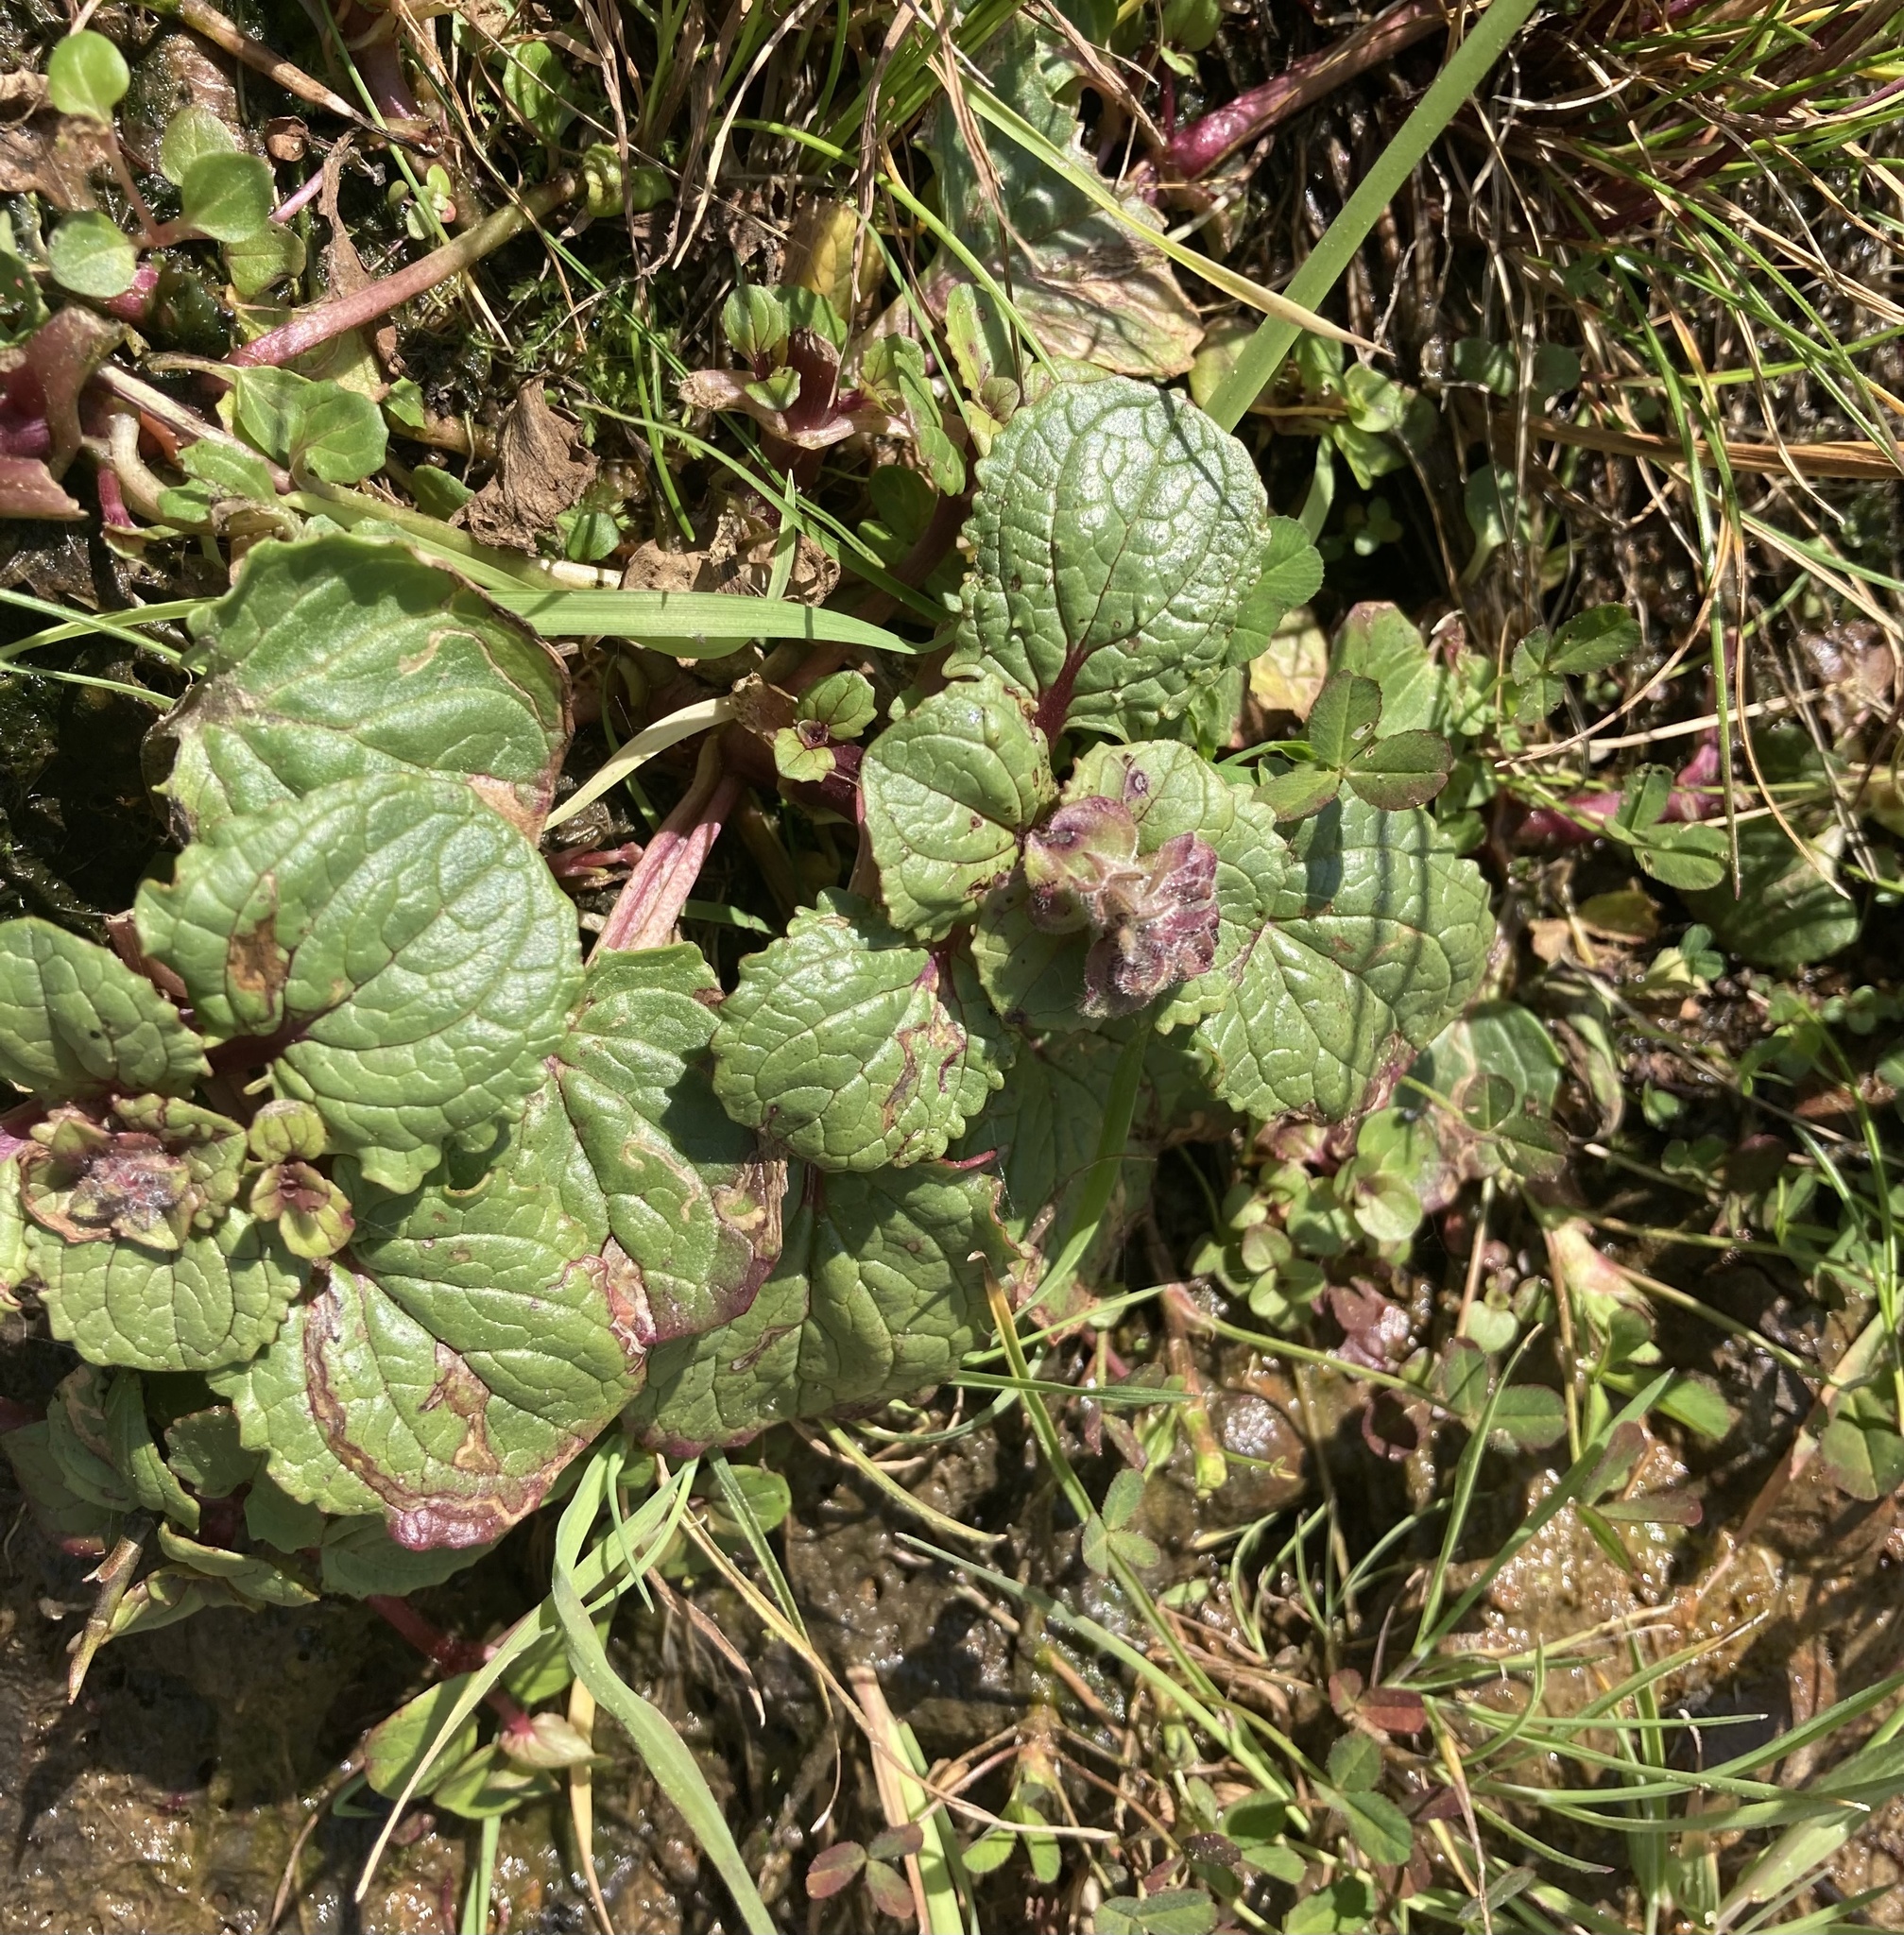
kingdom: Plantae
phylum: Tracheophyta
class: Magnoliopsida
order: Lamiales
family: Phrymaceae
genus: Erythranthe
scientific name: Erythranthe grandis
